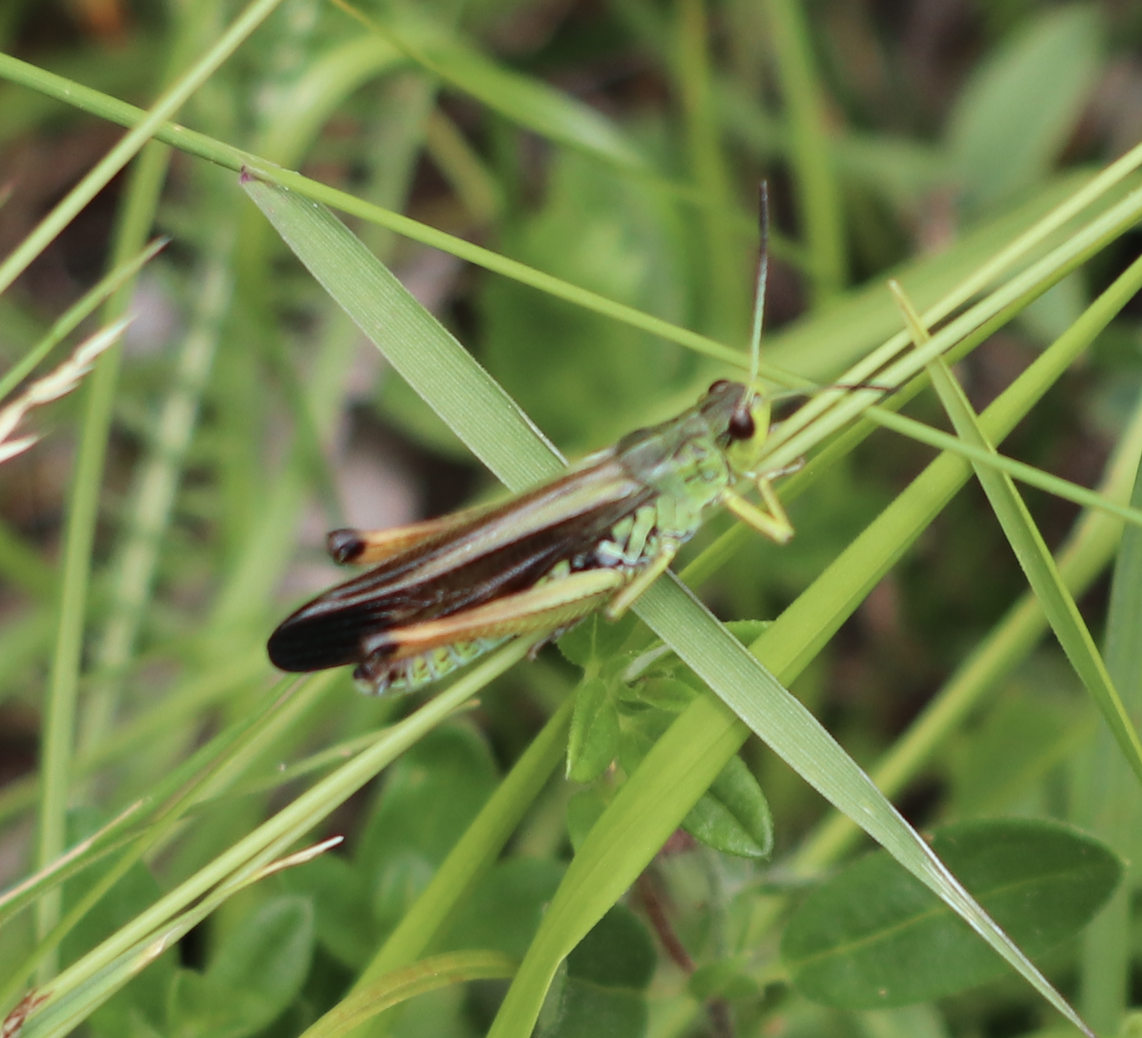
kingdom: Animalia
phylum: Arthropoda
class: Insecta
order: Orthoptera
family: Acrididae
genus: Stauroderus
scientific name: Stauroderus scalaris
